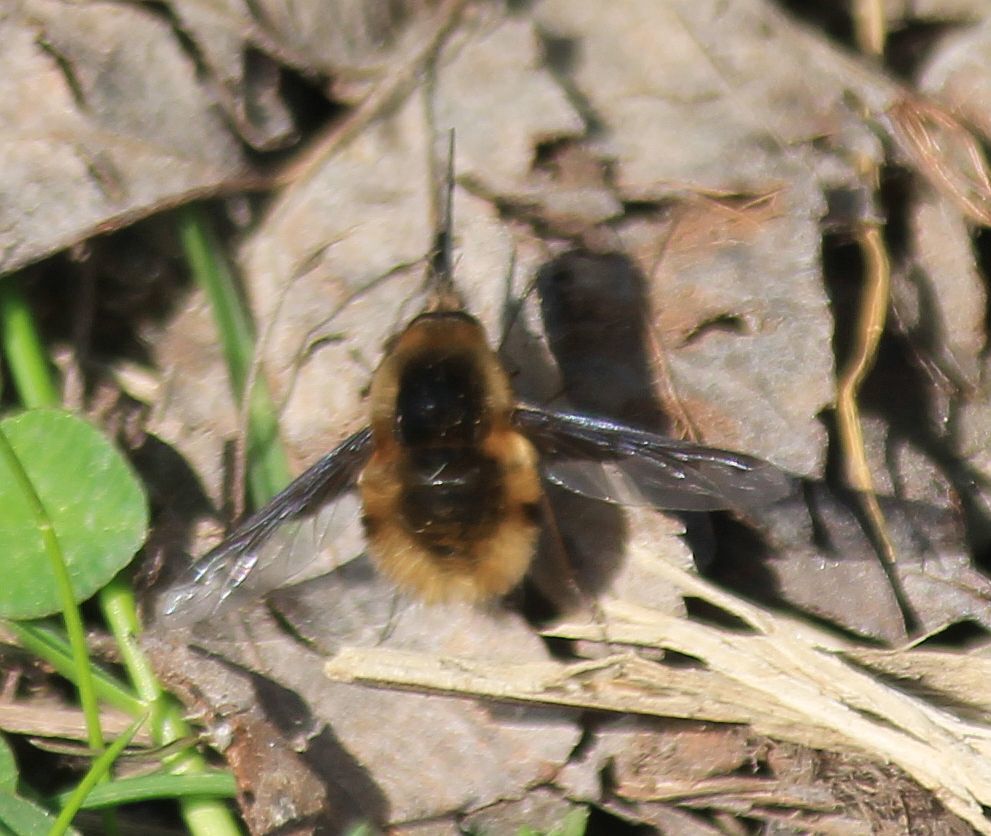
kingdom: Animalia
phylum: Arthropoda
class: Insecta
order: Diptera
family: Bombyliidae
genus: Bombylius
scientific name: Bombylius major
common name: Bee fly
